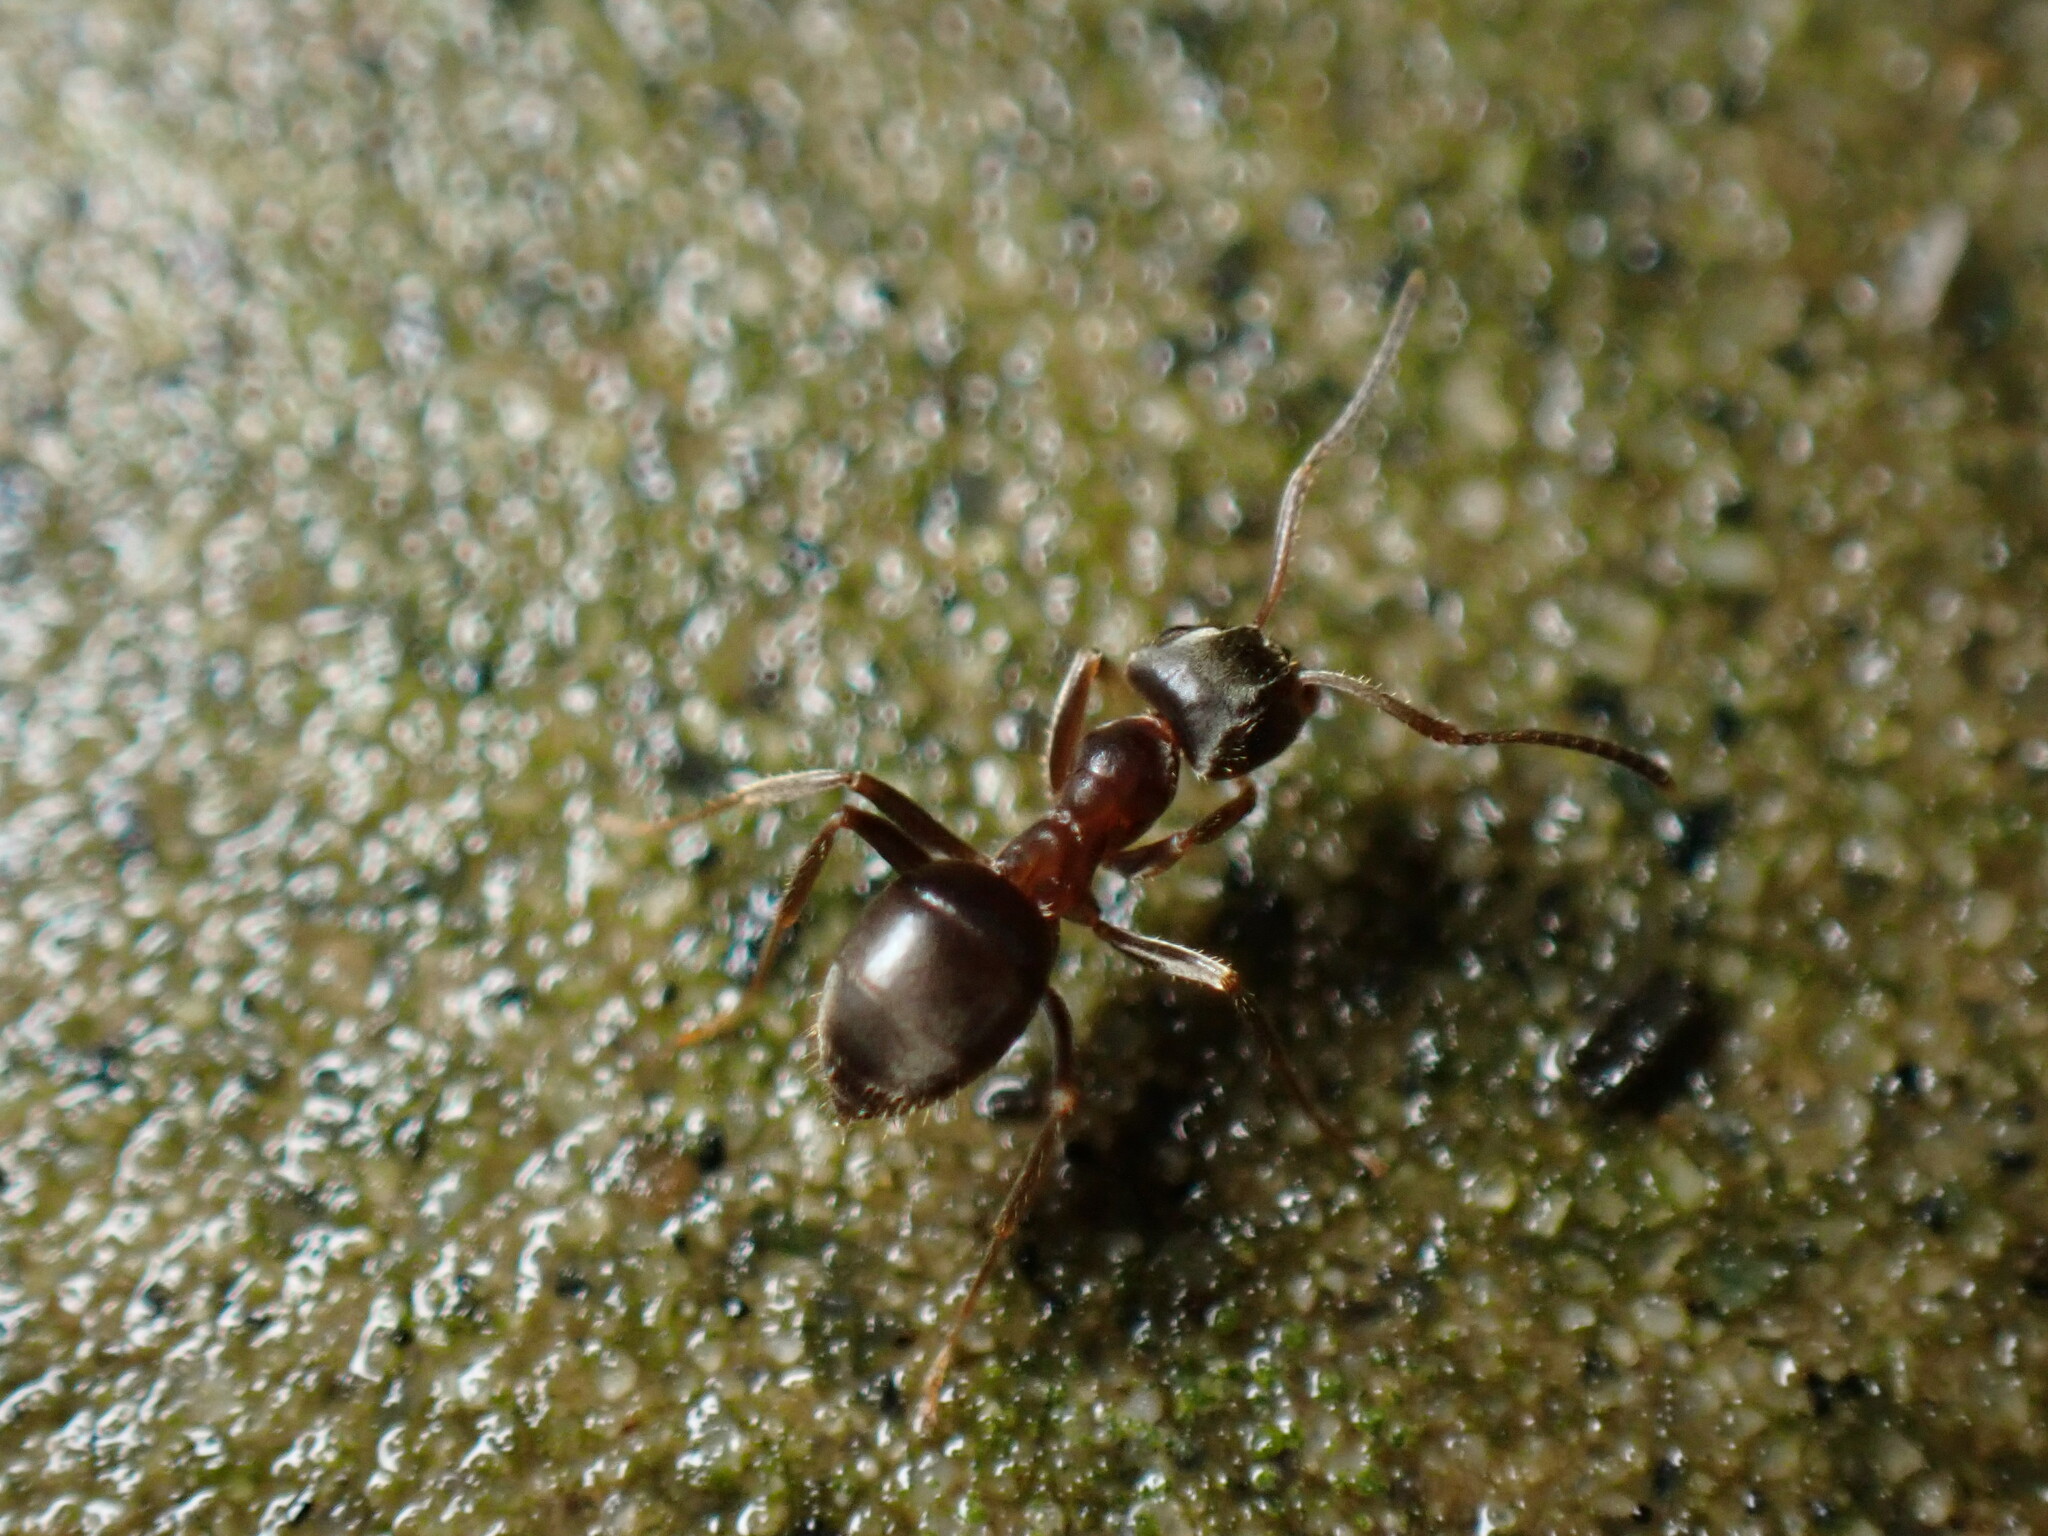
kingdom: Animalia
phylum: Arthropoda
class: Insecta
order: Hymenoptera
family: Formicidae
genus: Lasius
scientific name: Lasius niger
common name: Small black ant
